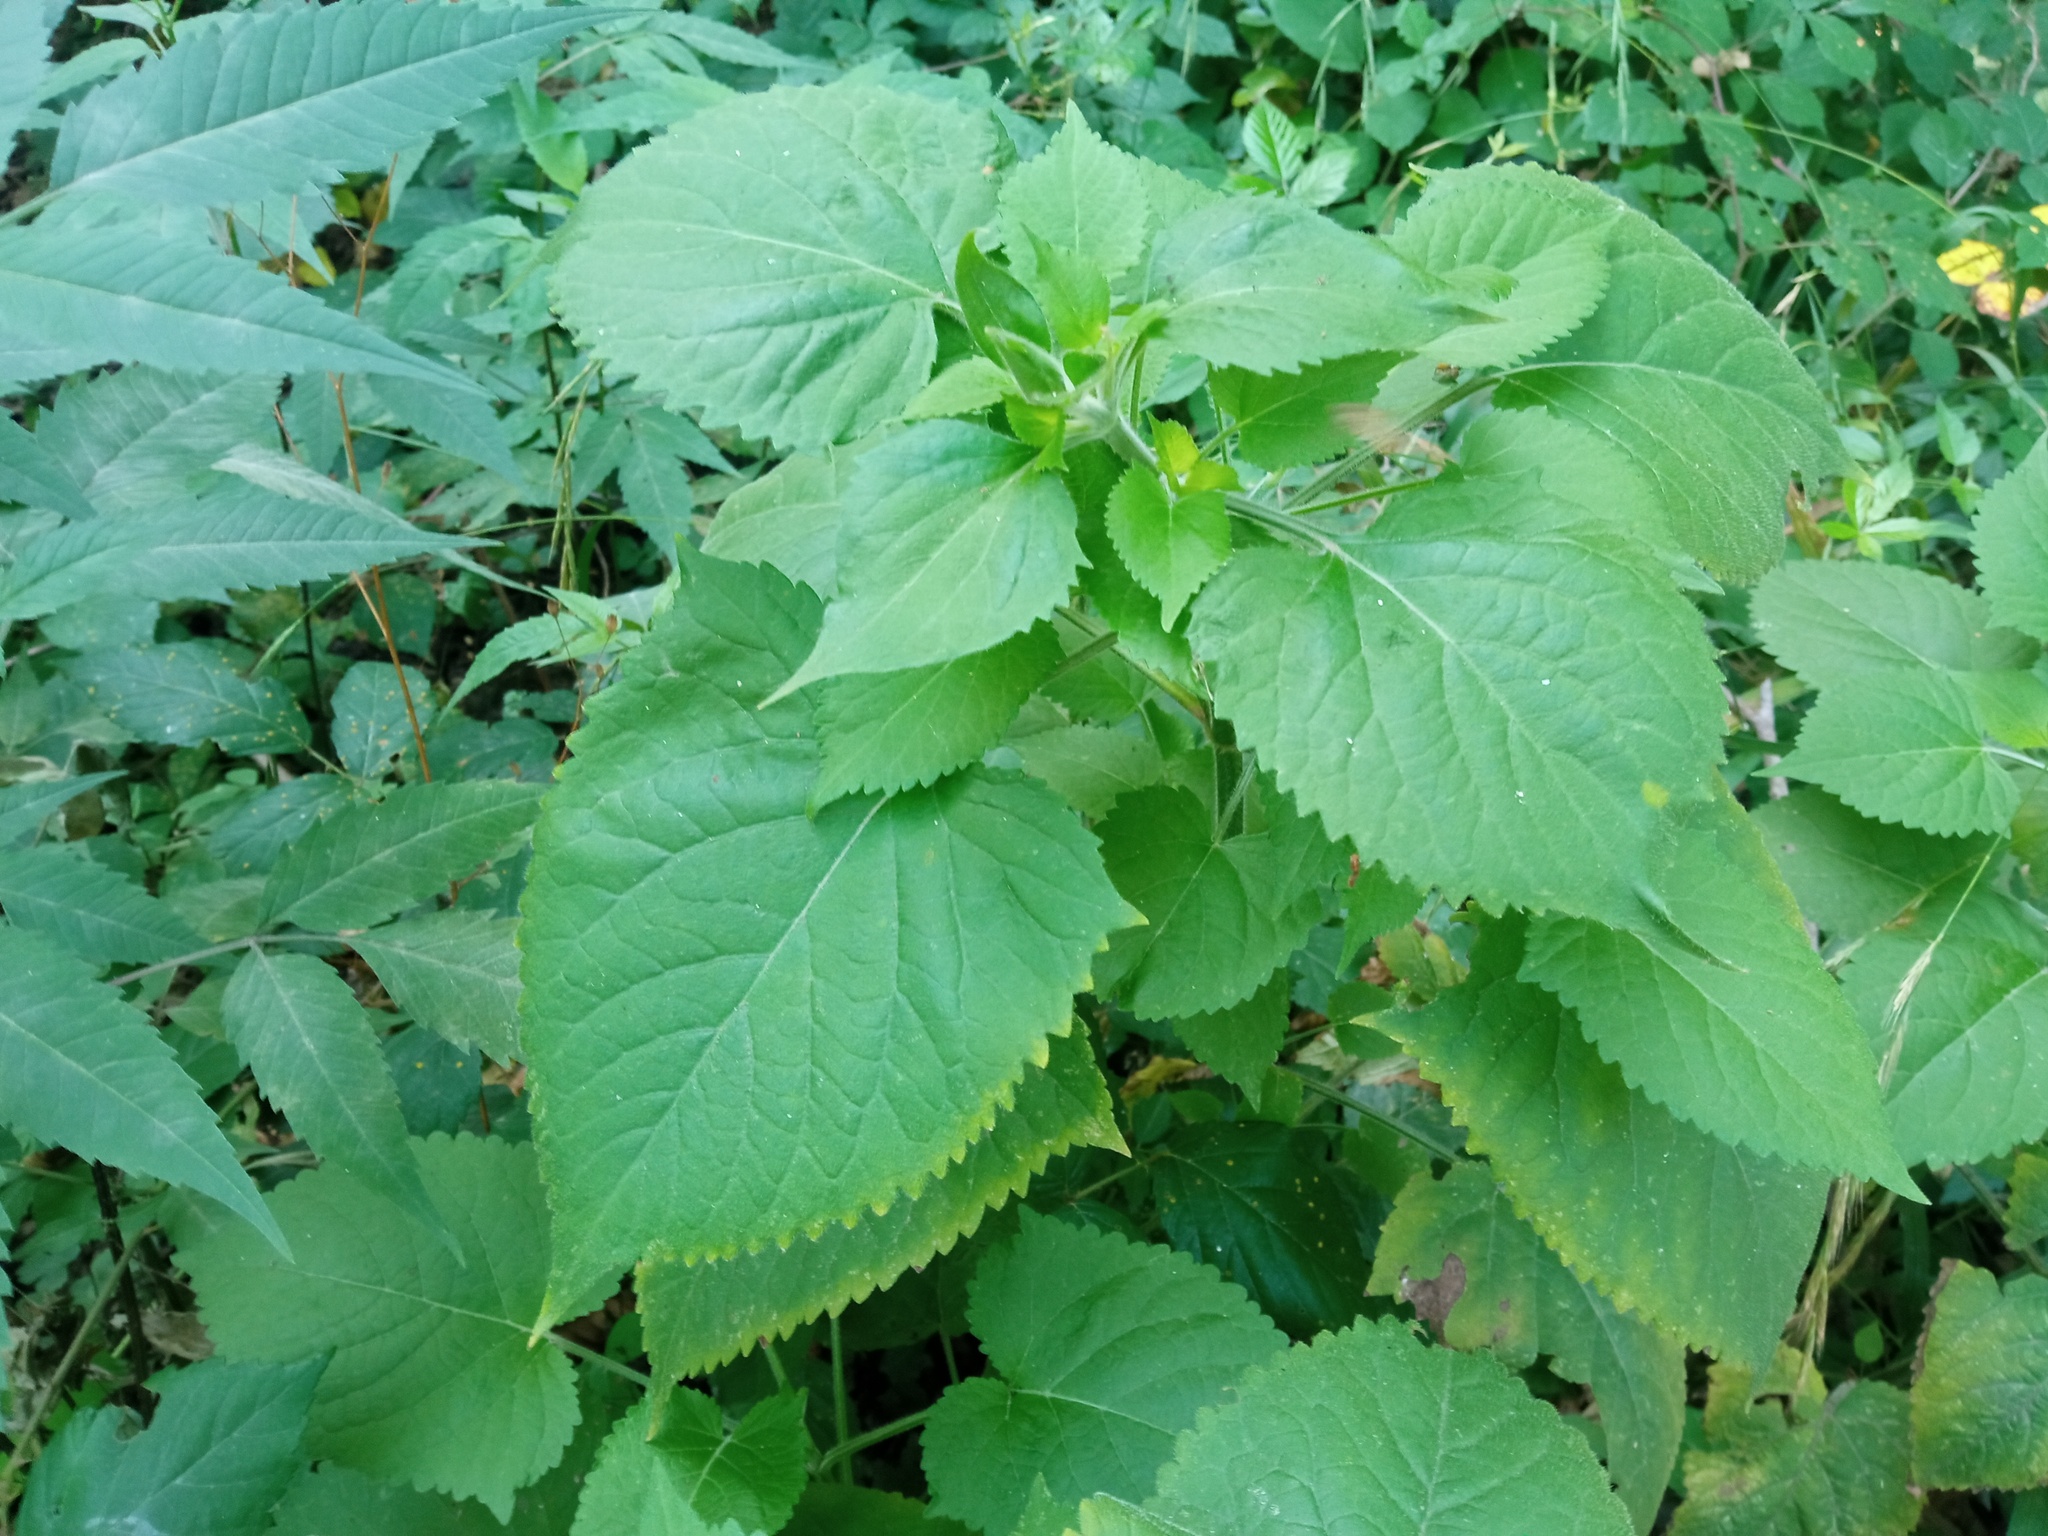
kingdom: Plantae
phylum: Tracheophyta
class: Magnoliopsida
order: Lamiales
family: Lamiaceae
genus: Salvia
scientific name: Salvia glutinosa
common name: Sticky clary
